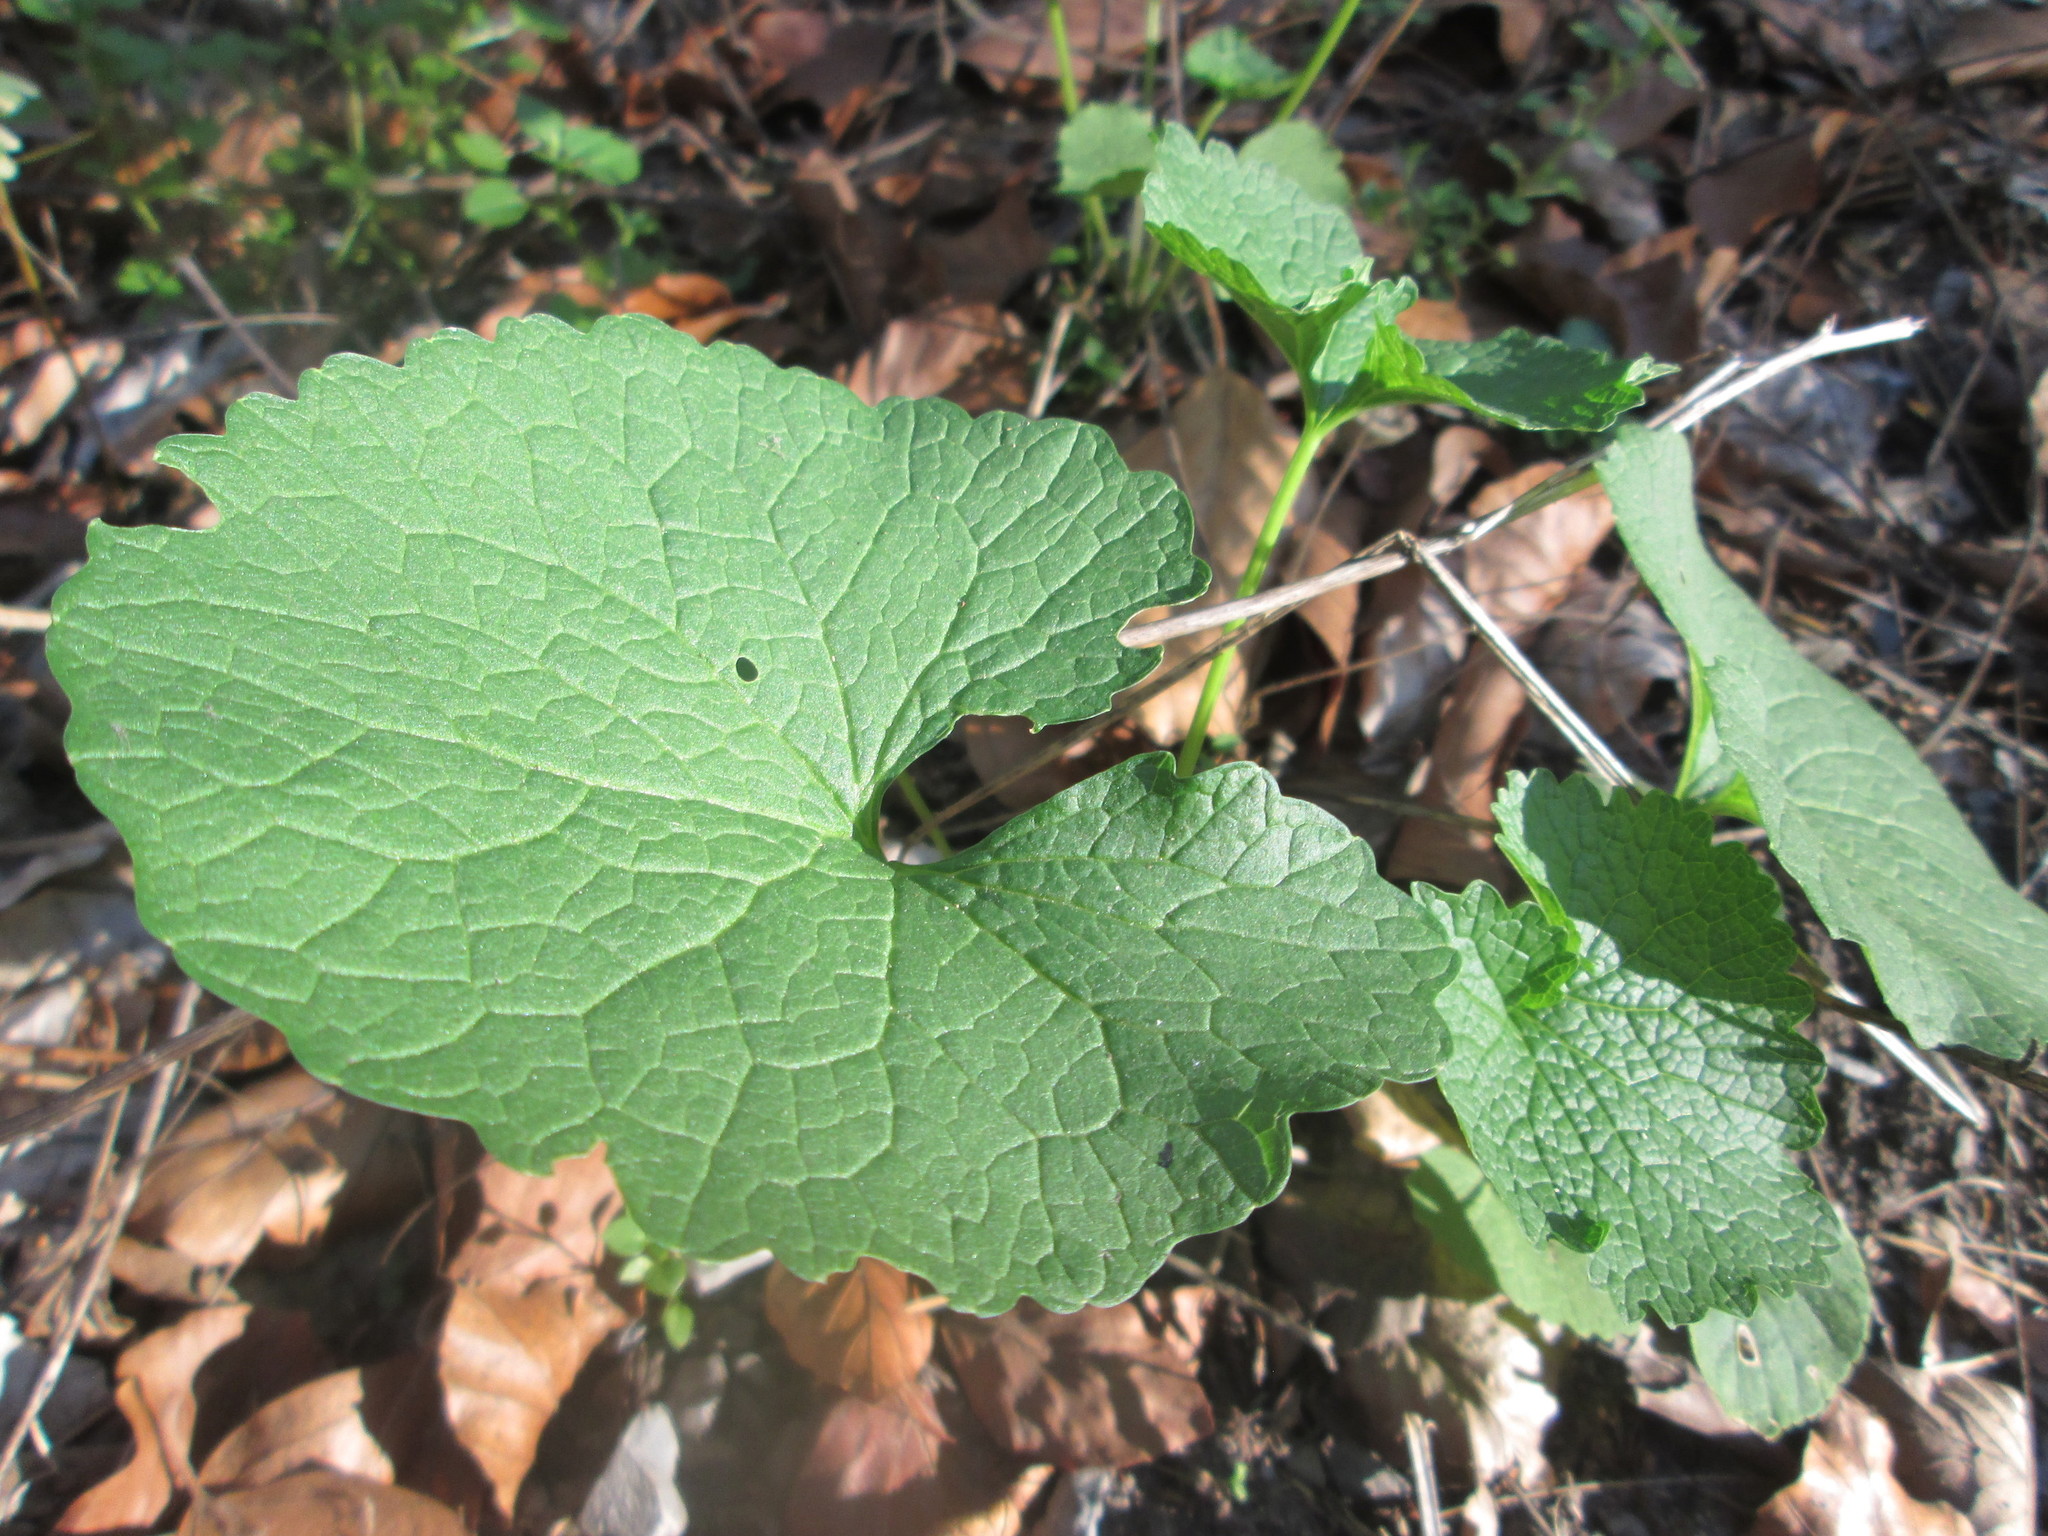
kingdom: Plantae
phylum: Tracheophyta
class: Magnoliopsida
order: Brassicales
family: Brassicaceae
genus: Alliaria
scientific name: Alliaria petiolata
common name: Garlic mustard
